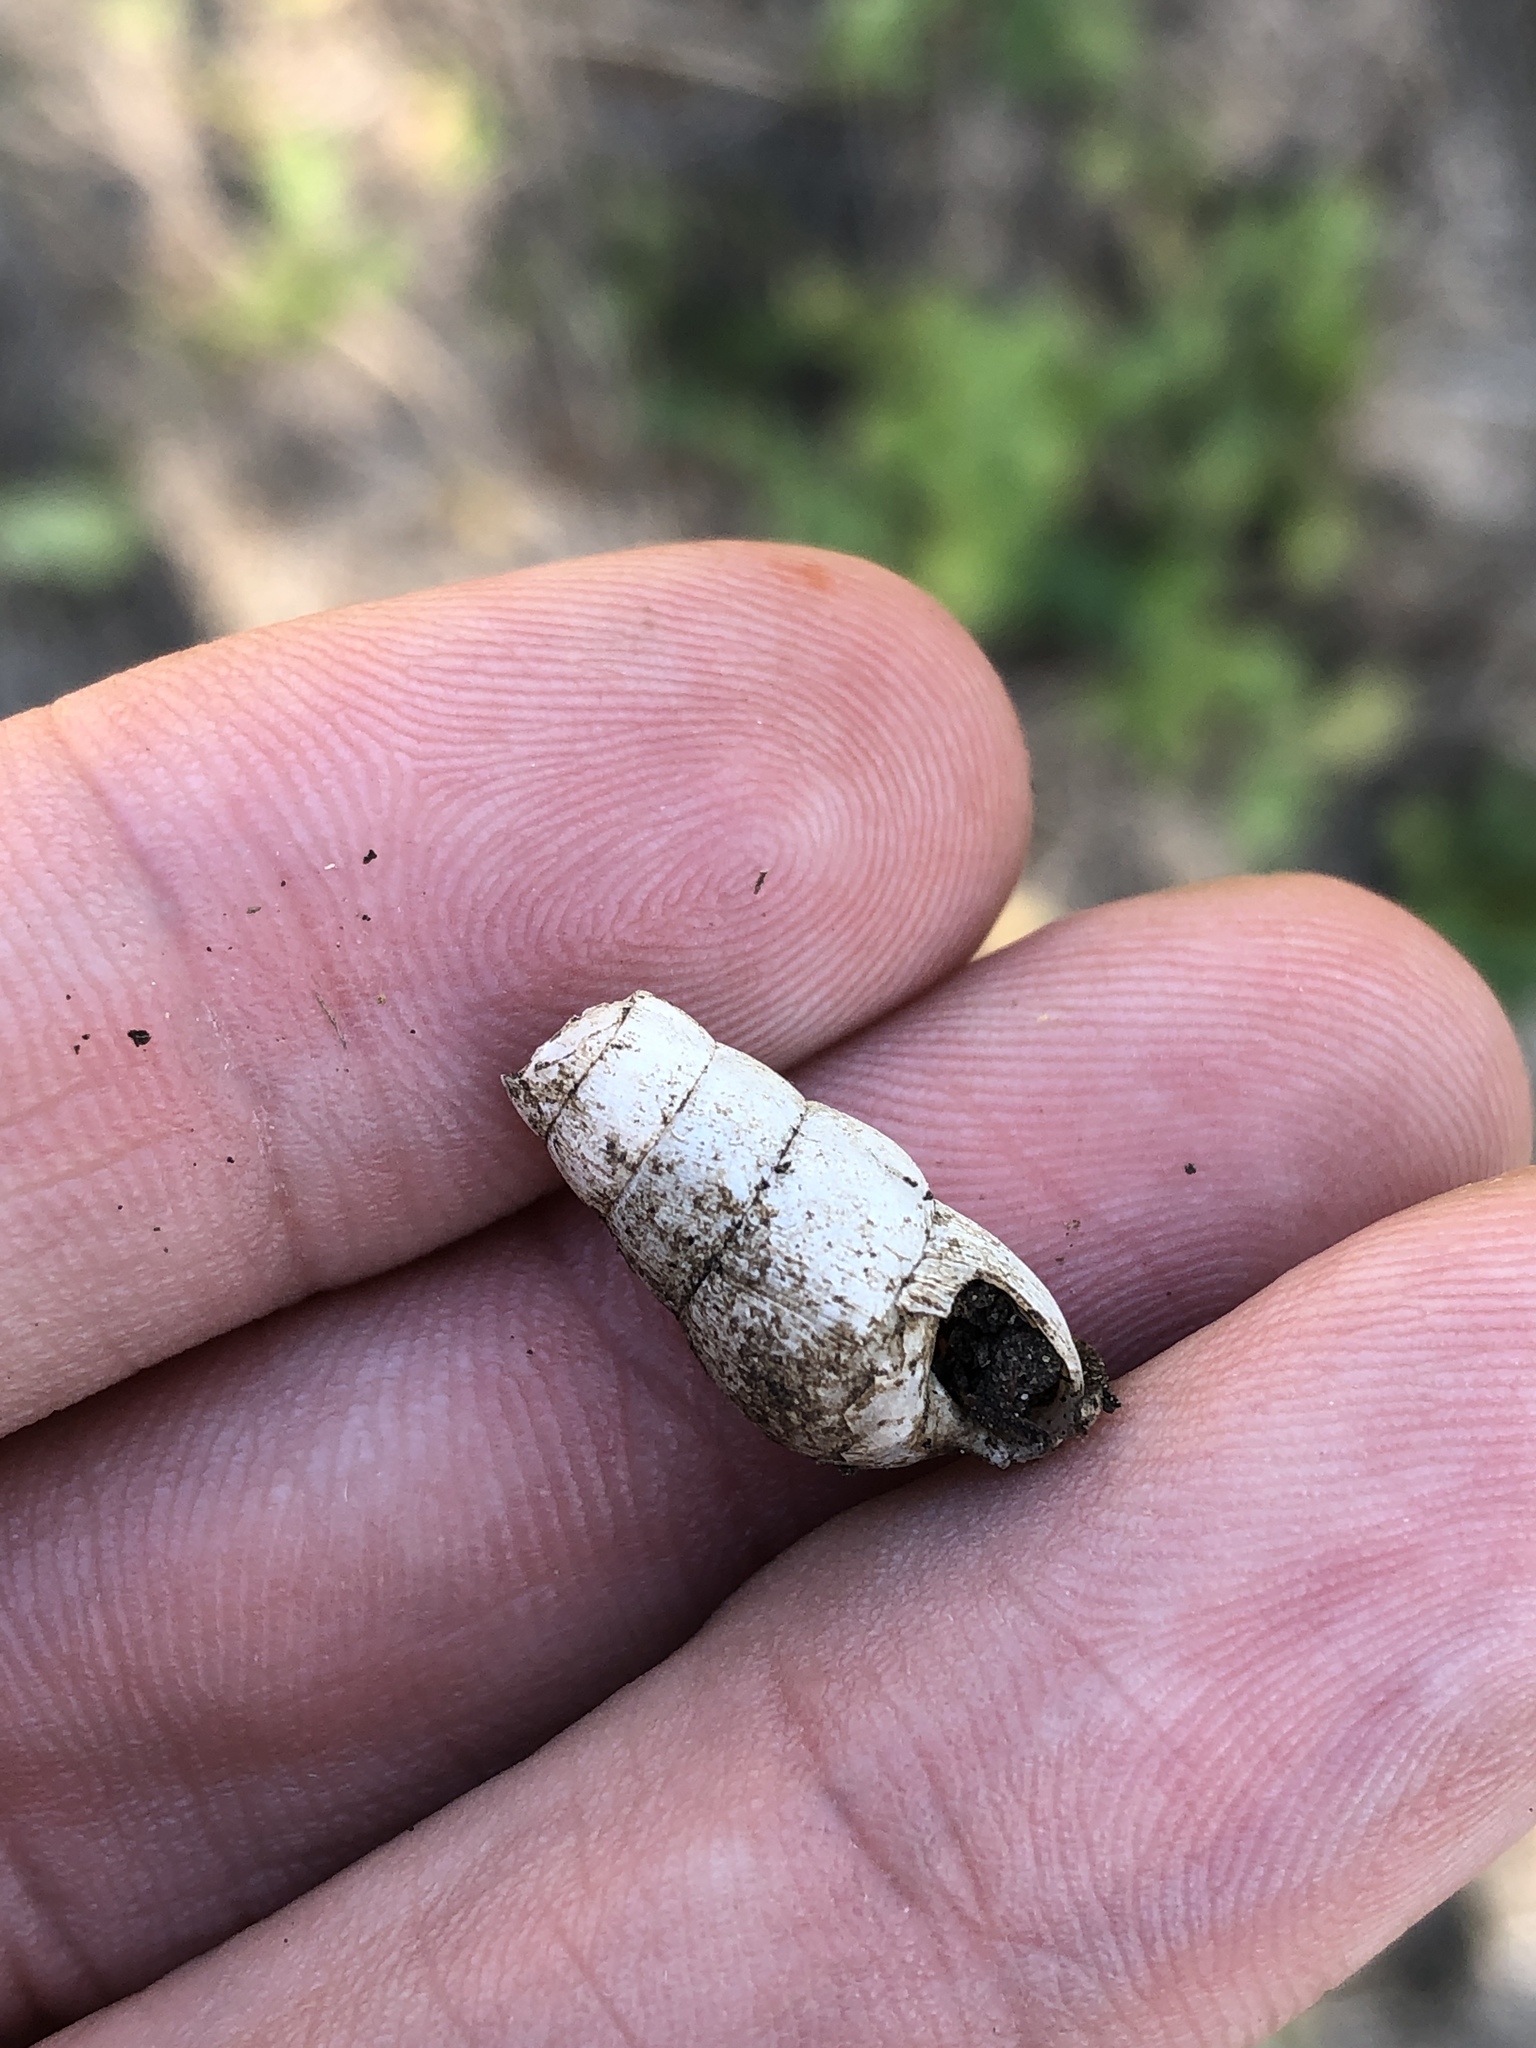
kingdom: Animalia
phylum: Mollusca
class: Gastropoda
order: Stylommatophora
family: Achatinidae
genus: Rumina
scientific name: Rumina decollata
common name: Decollate snail
